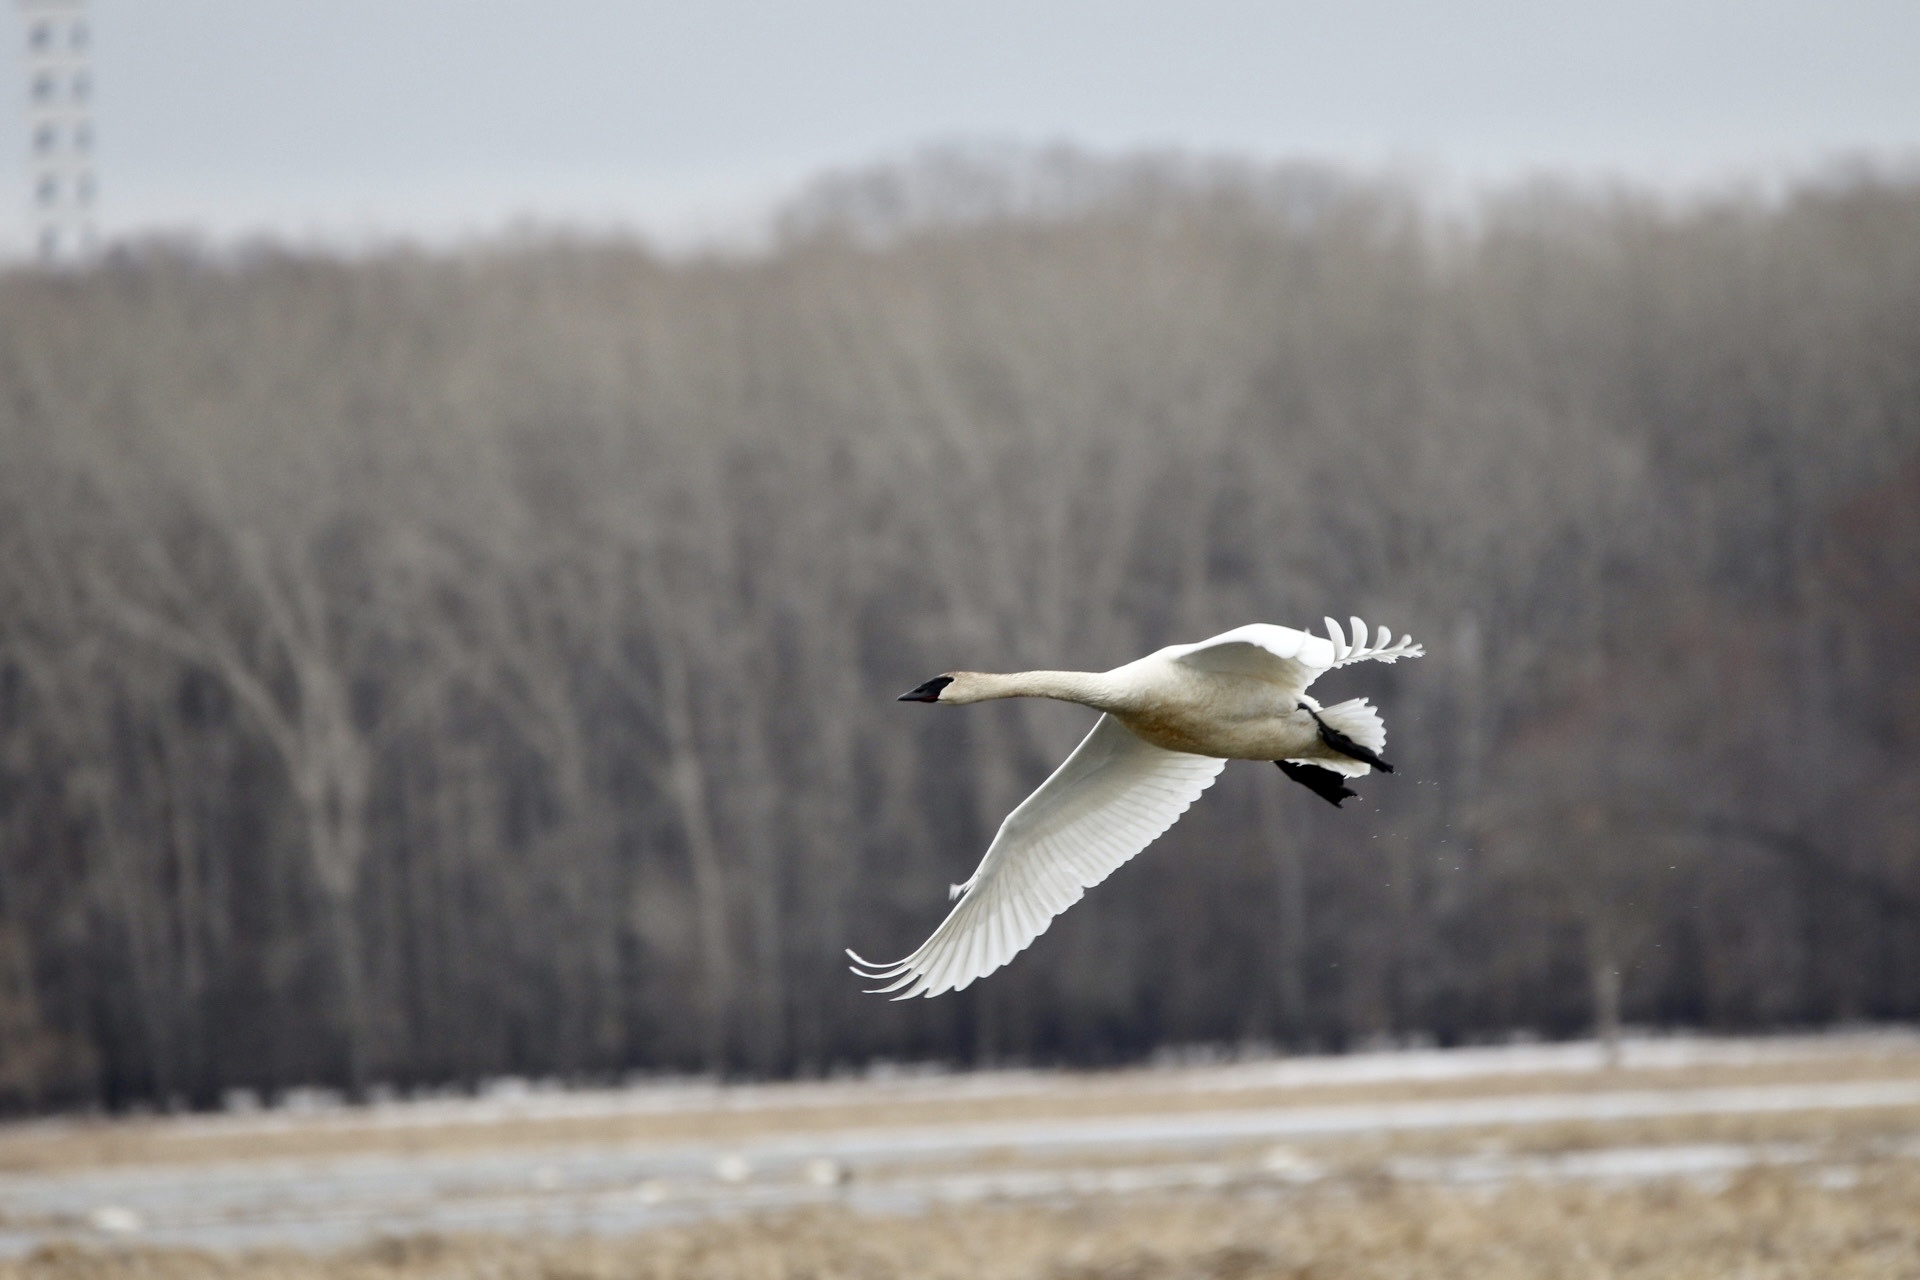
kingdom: Animalia
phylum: Chordata
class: Aves
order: Anseriformes
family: Anatidae
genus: Cygnus
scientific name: Cygnus buccinator
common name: Trumpeter swan
